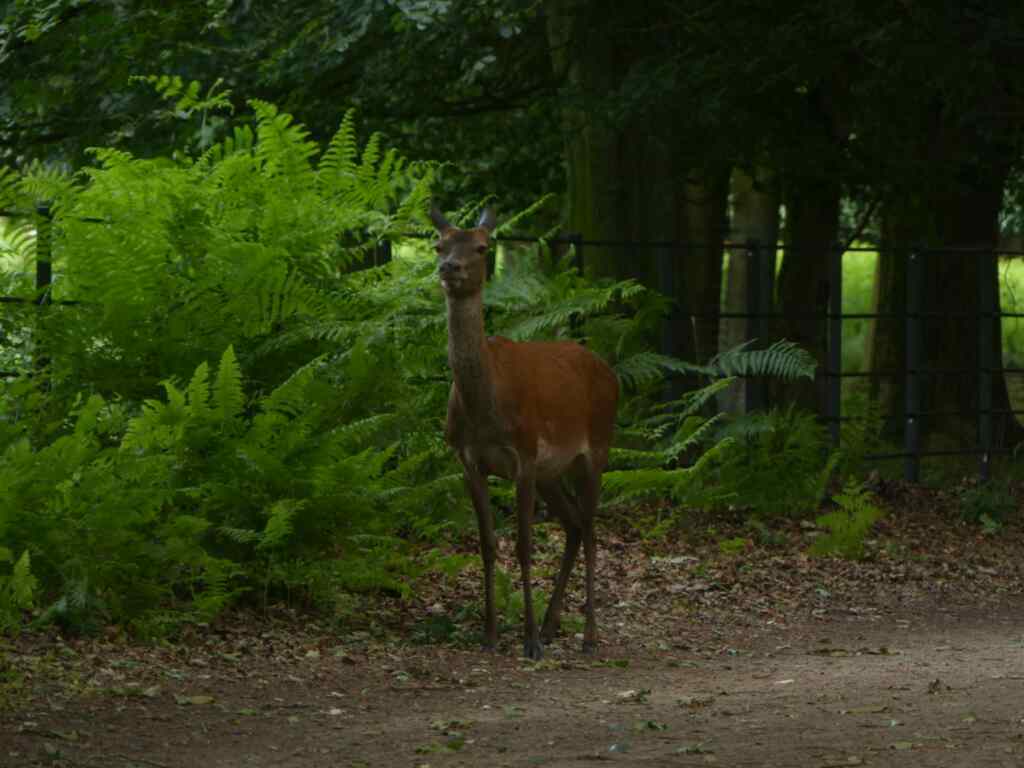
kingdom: Animalia
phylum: Chordata
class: Mammalia
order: Artiodactyla
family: Cervidae
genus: Cervus
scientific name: Cervus elaphus
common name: Red deer
